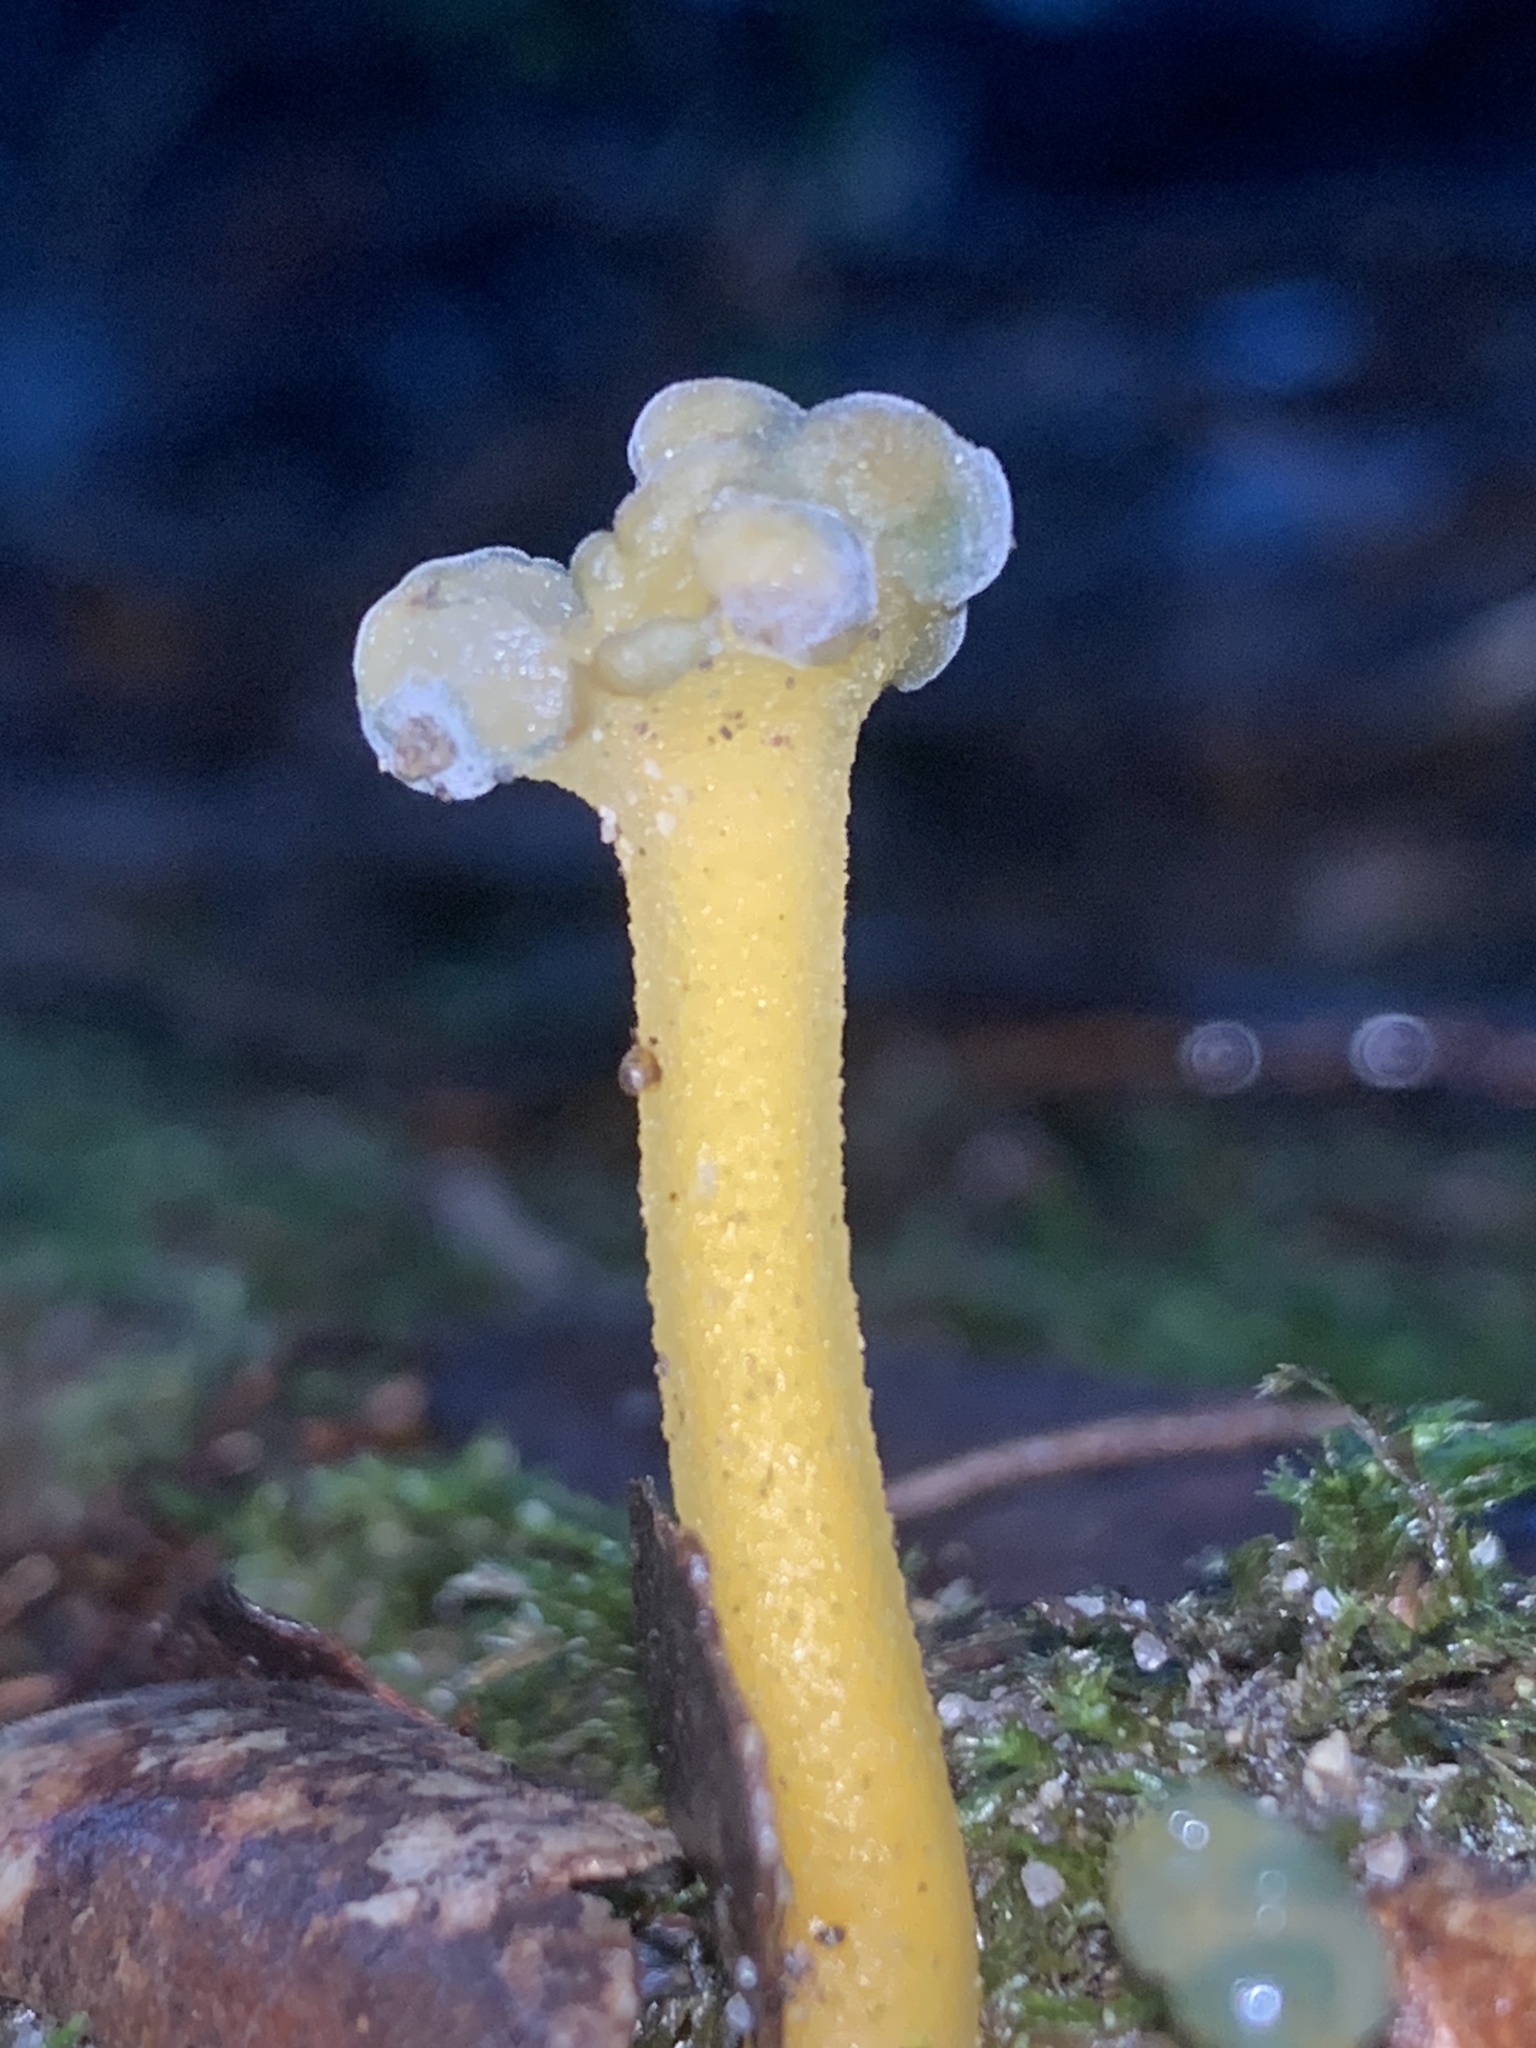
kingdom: Fungi
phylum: Ascomycota
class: Leotiomycetes
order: Leotiales
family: Leotiaceae
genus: Leotia
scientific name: Leotia lubrica
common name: Jellybaby
